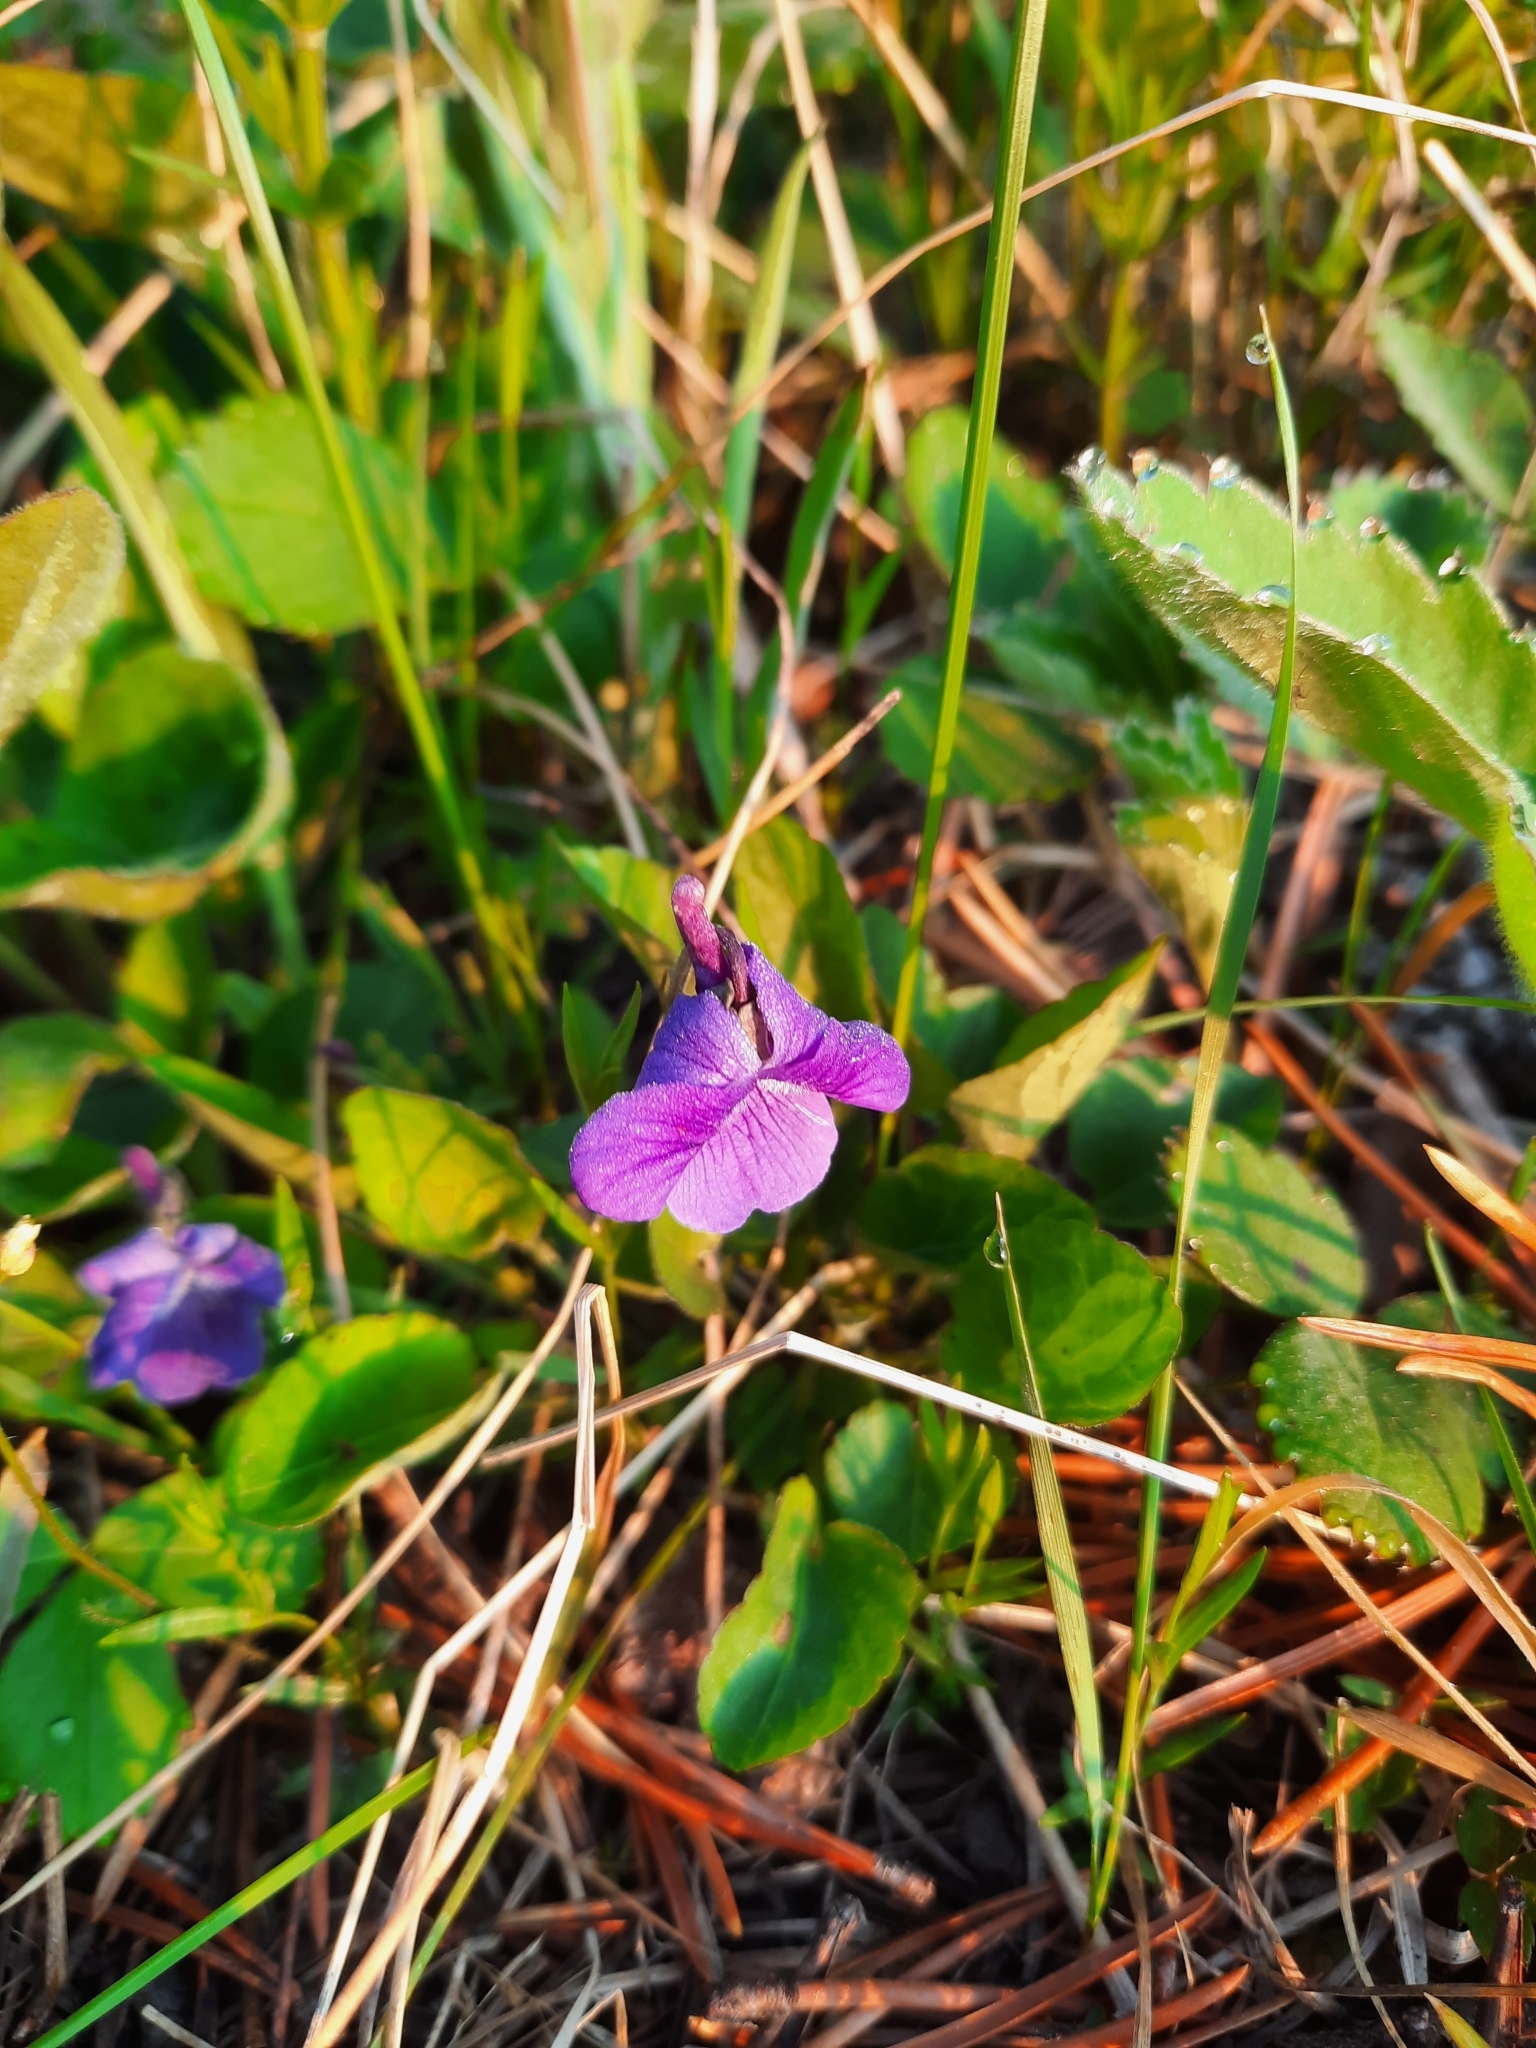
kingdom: Plantae
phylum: Tracheophyta
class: Magnoliopsida
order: Malpighiales
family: Violaceae
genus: Viola
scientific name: Viola adunca
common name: Sand violet
